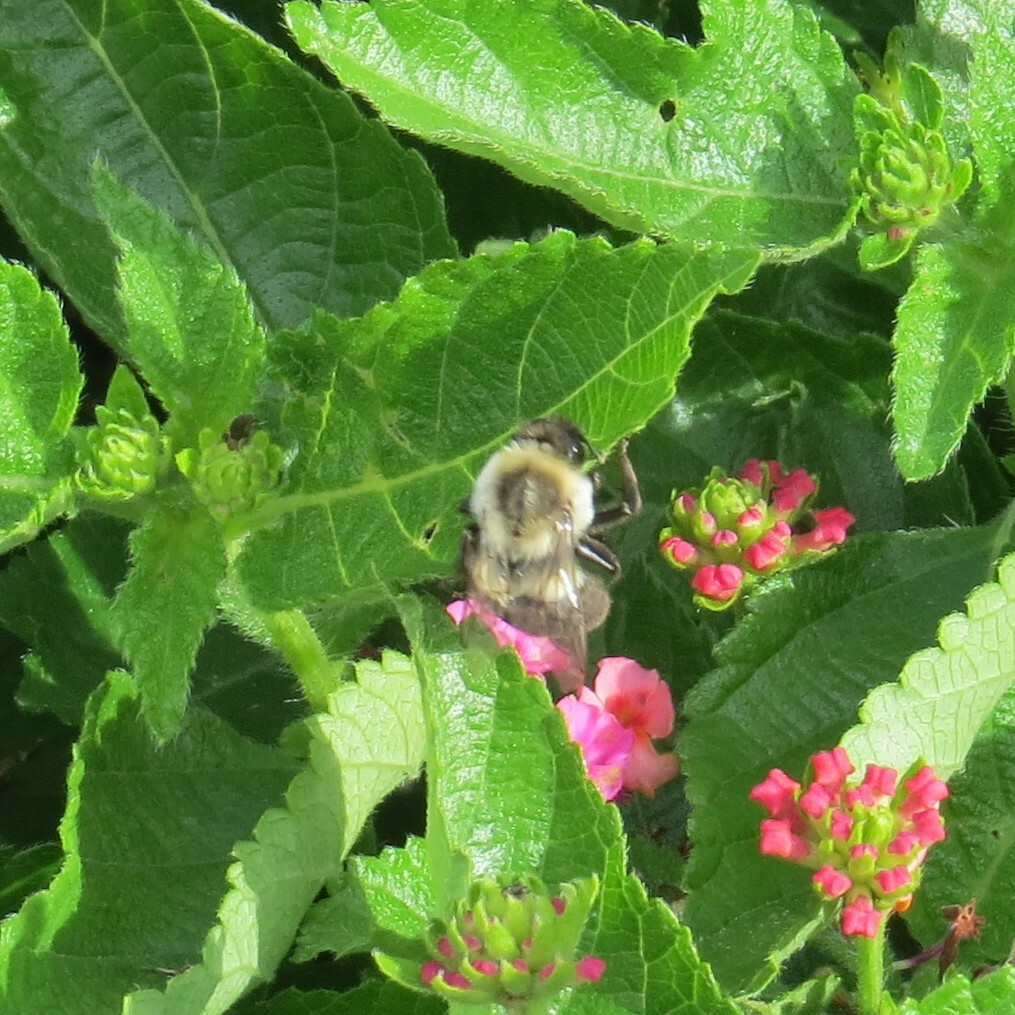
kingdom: Animalia
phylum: Arthropoda
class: Insecta
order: Hymenoptera
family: Apidae
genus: Bombus
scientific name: Bombus impatiens
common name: Common eastern bumble bee
